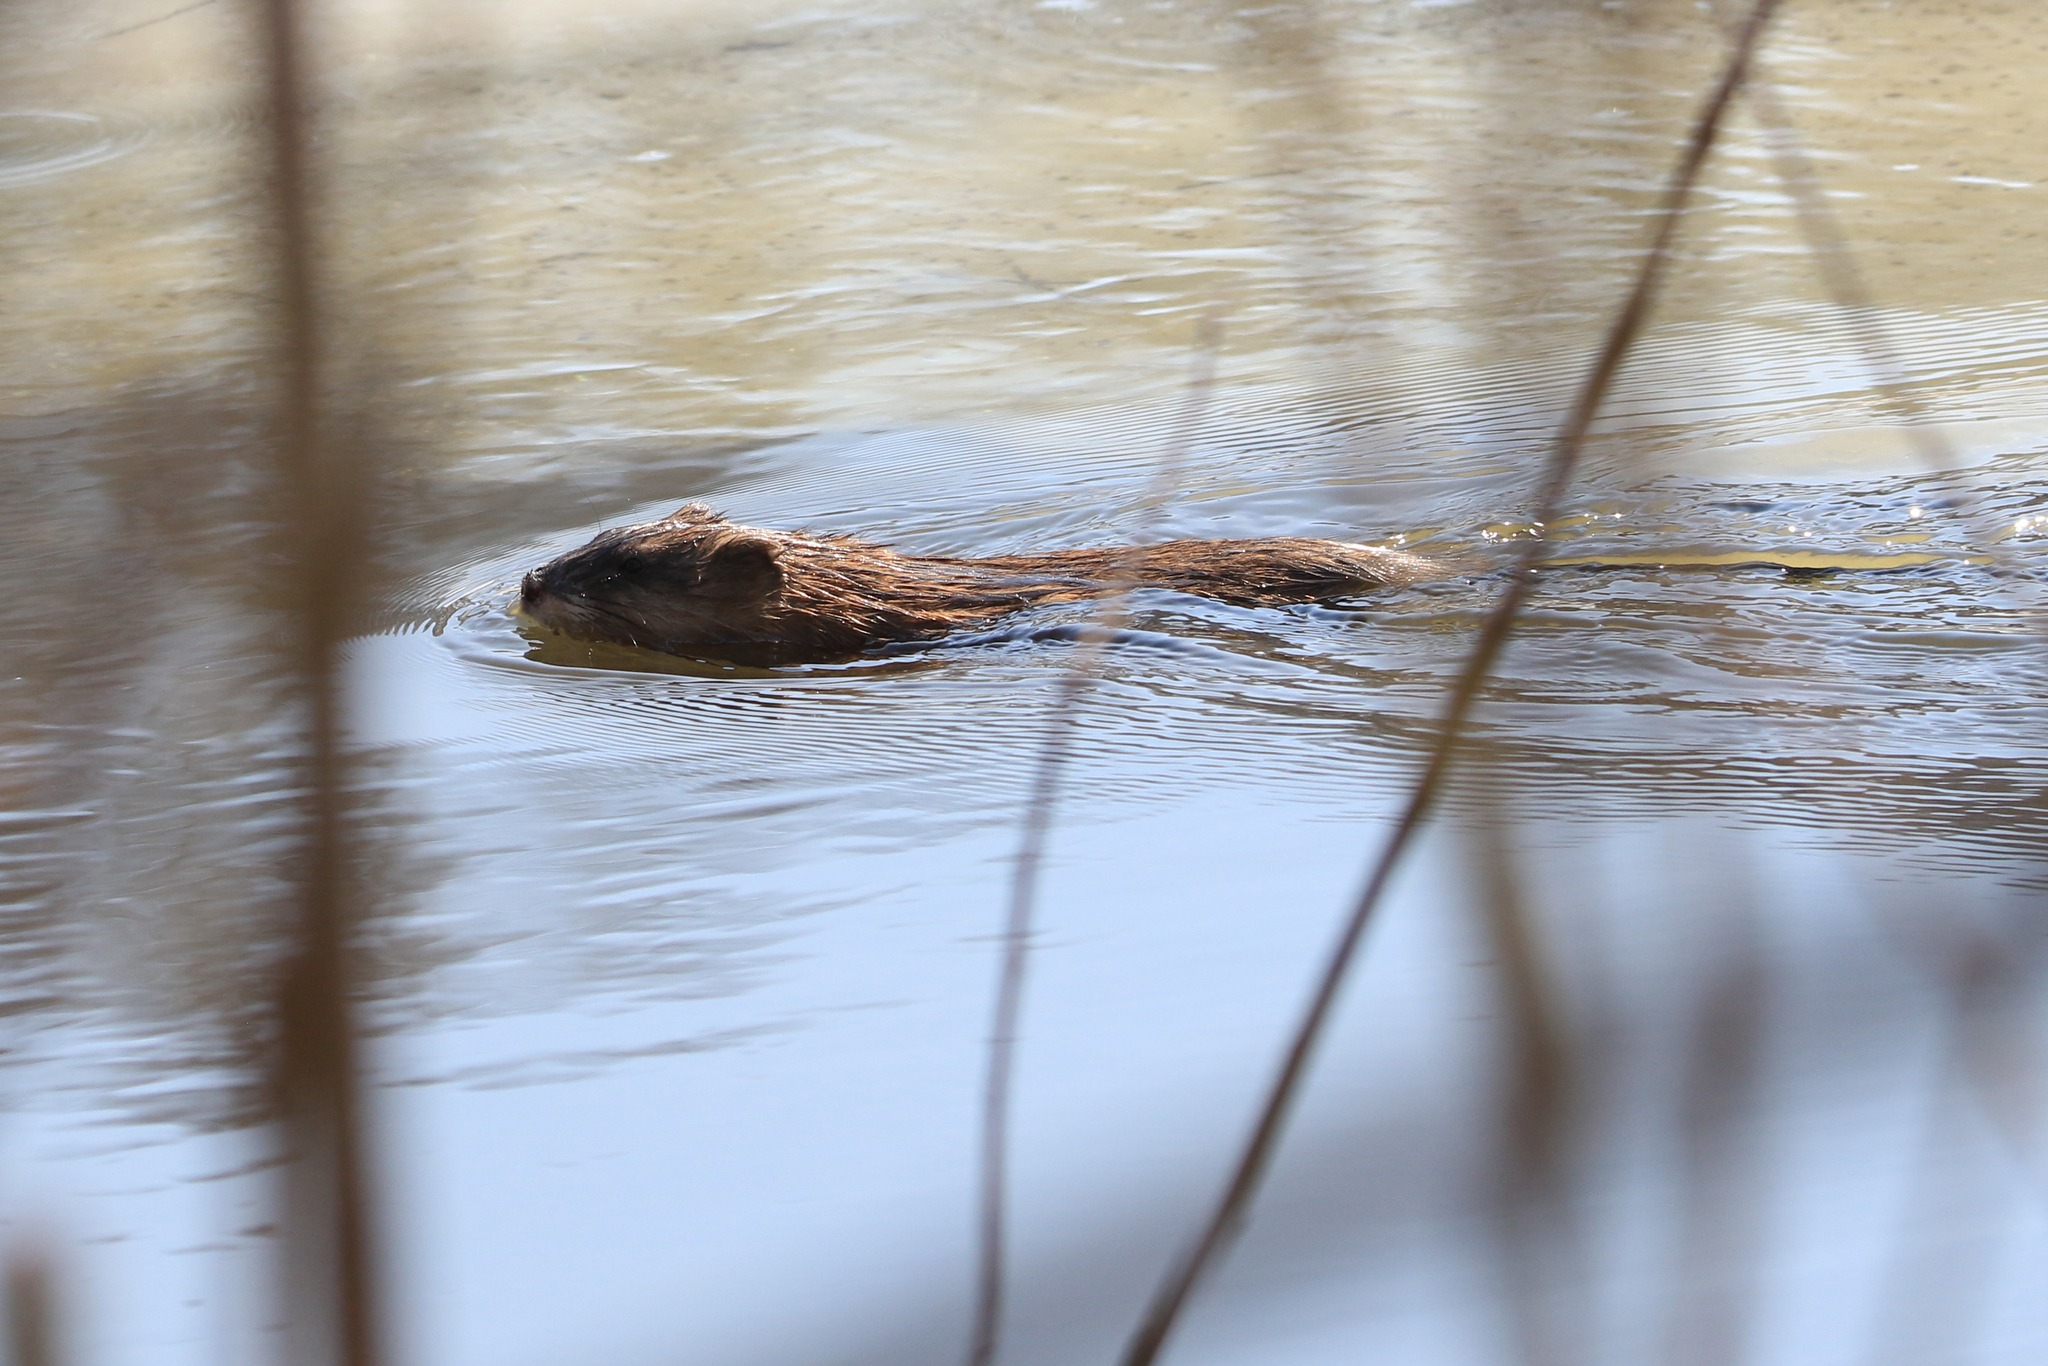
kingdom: Animalia
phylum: Chordata
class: Mammalia
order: Rodentia
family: Cricetidae
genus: Ondatra
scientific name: Ondatra zibethicus
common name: Muskrat
